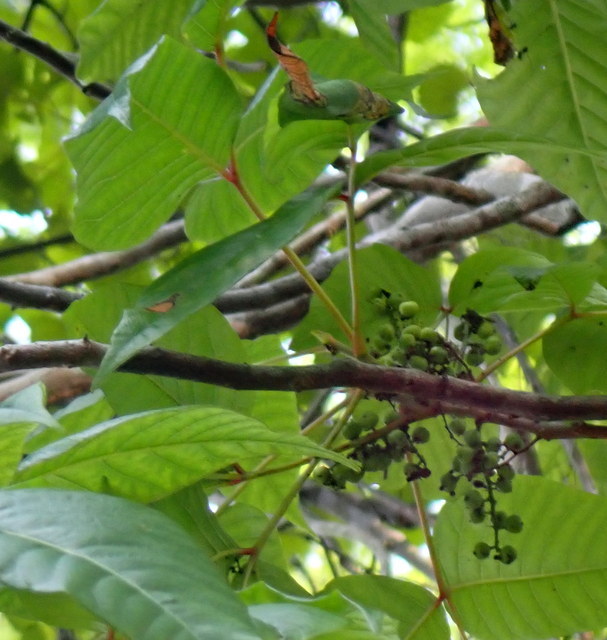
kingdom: Plantae
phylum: Tracheophyta
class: Magnoliopsida
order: Sapindales
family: Anacardiaceae
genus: Toxicodendron
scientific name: Toxicodendron radicans
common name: Poison ivy
